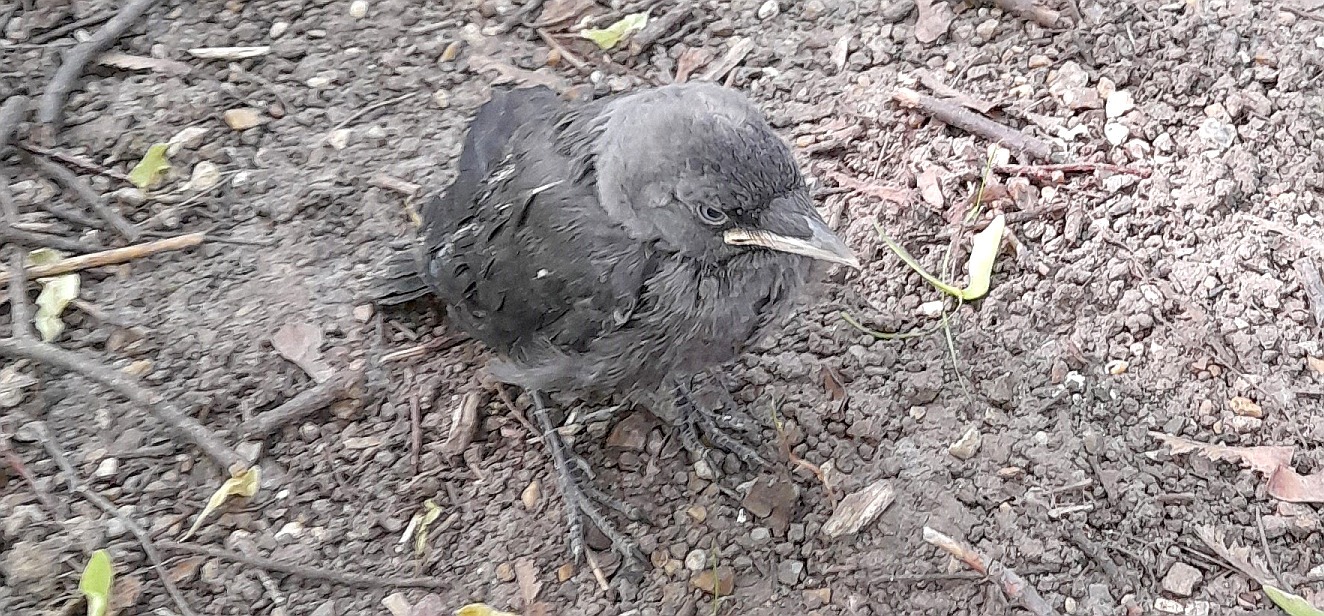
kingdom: Animalia
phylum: Chordata
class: Aves
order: Passeriformes
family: Corvidae
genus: Coloeus
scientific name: Coloeus monedula
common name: Western jackdaw
